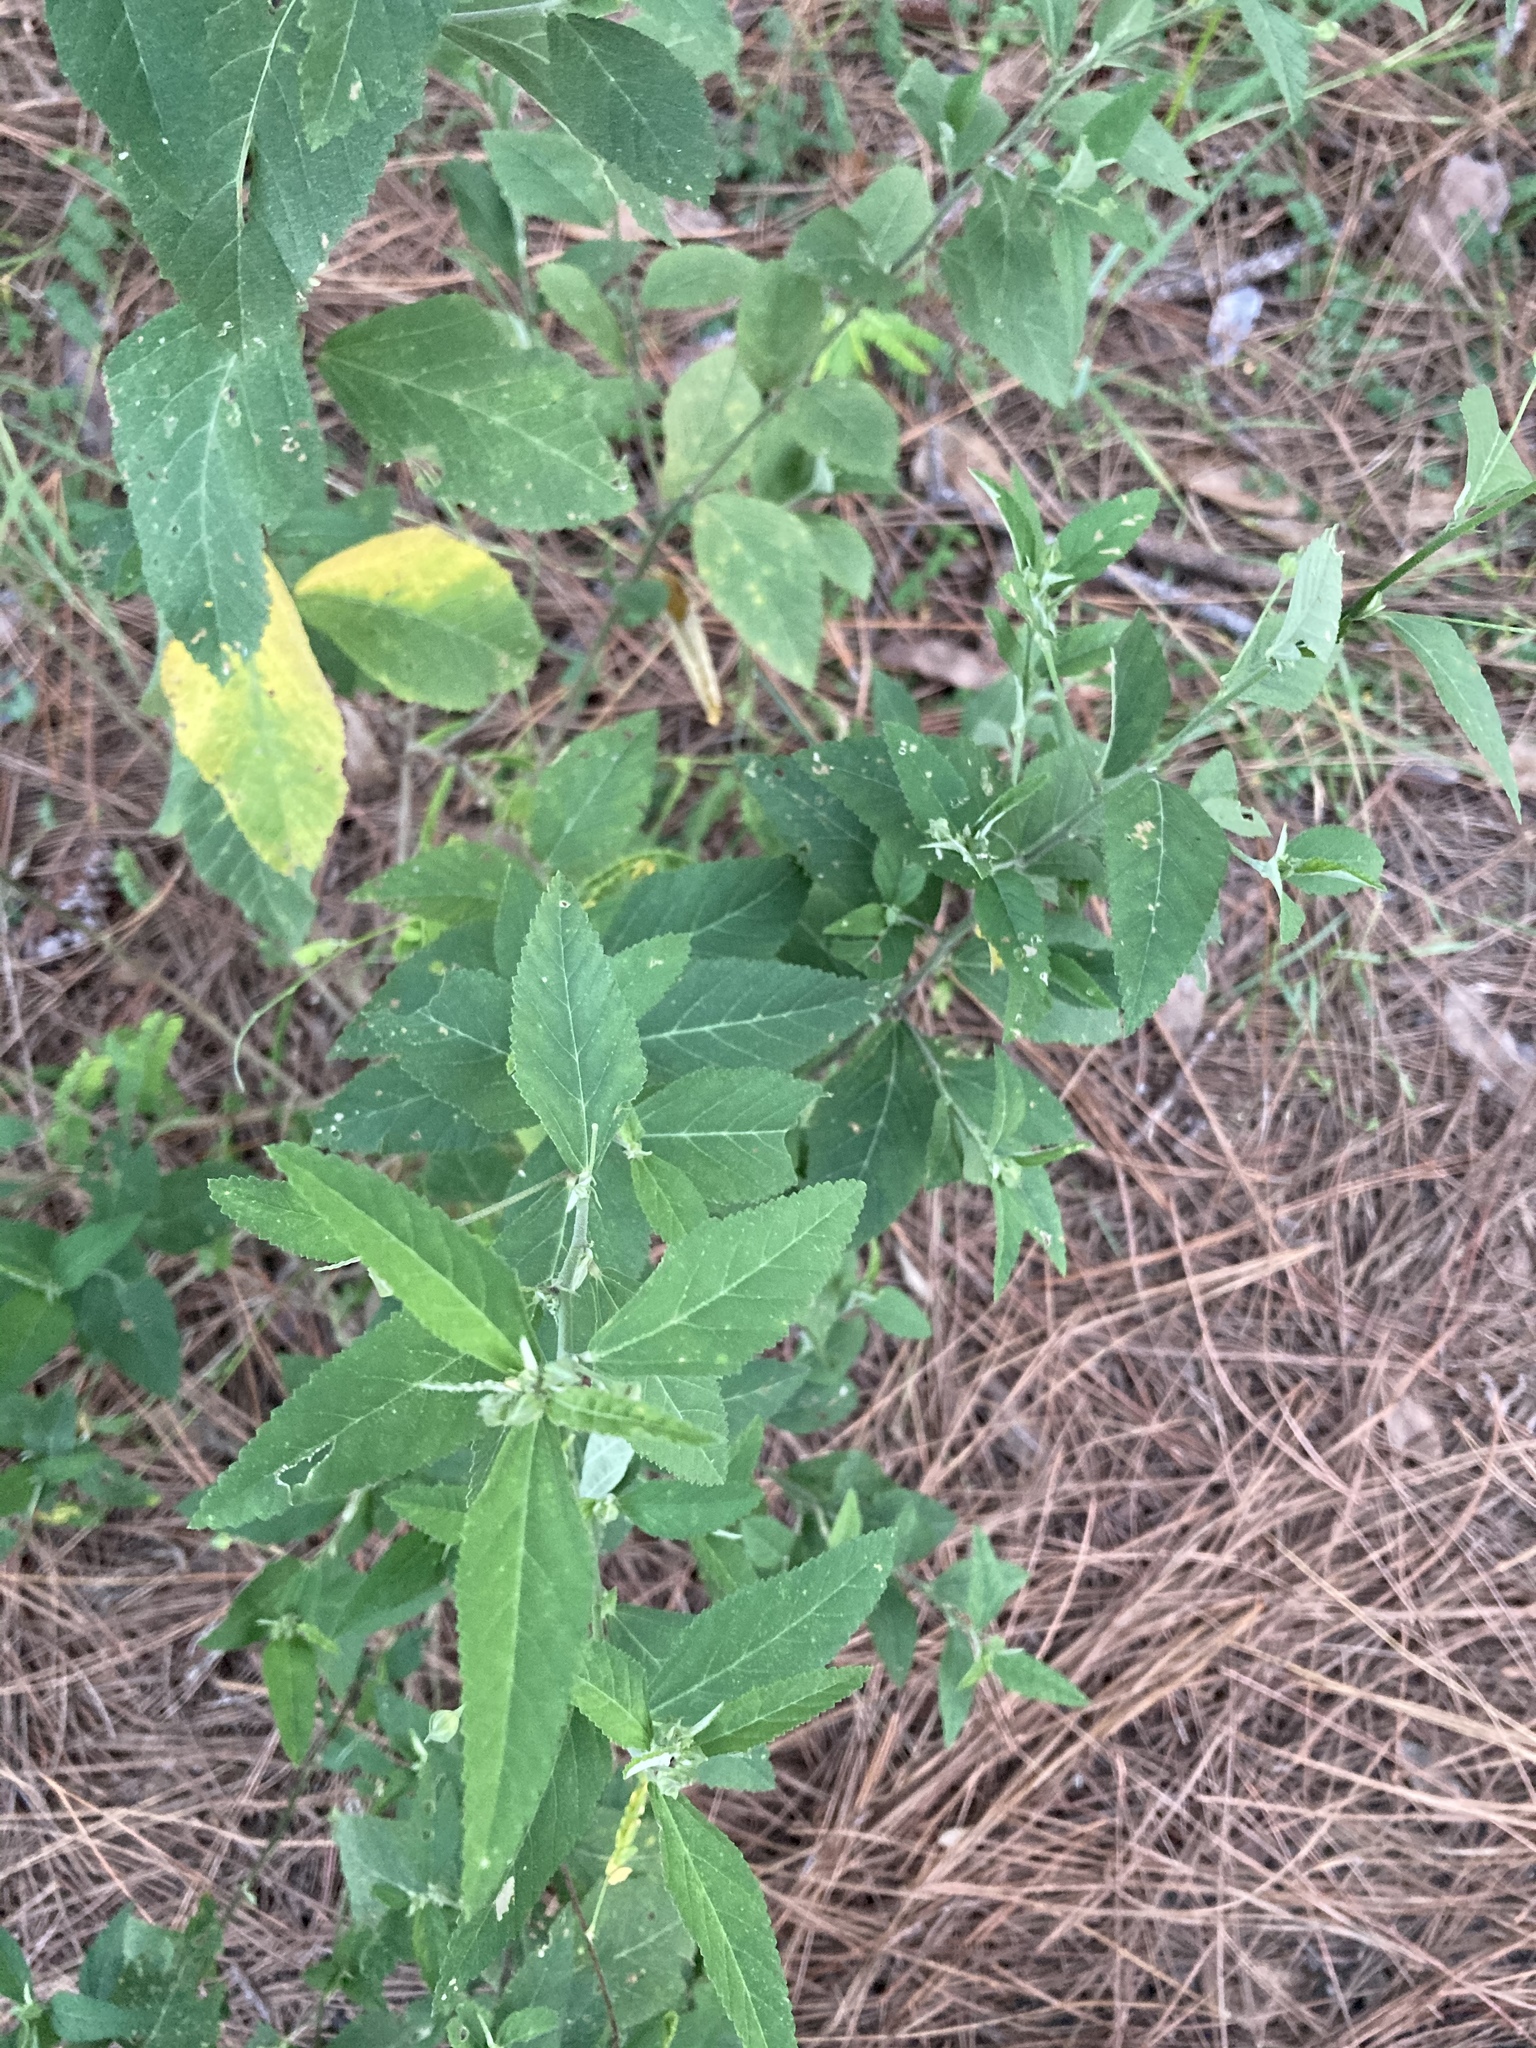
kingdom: Plantae
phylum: Tracheophyta
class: Magnoliopsida
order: Malvales
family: Malvaceae
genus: Sida
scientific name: Sida rhombifolia
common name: Queensland-hemp
